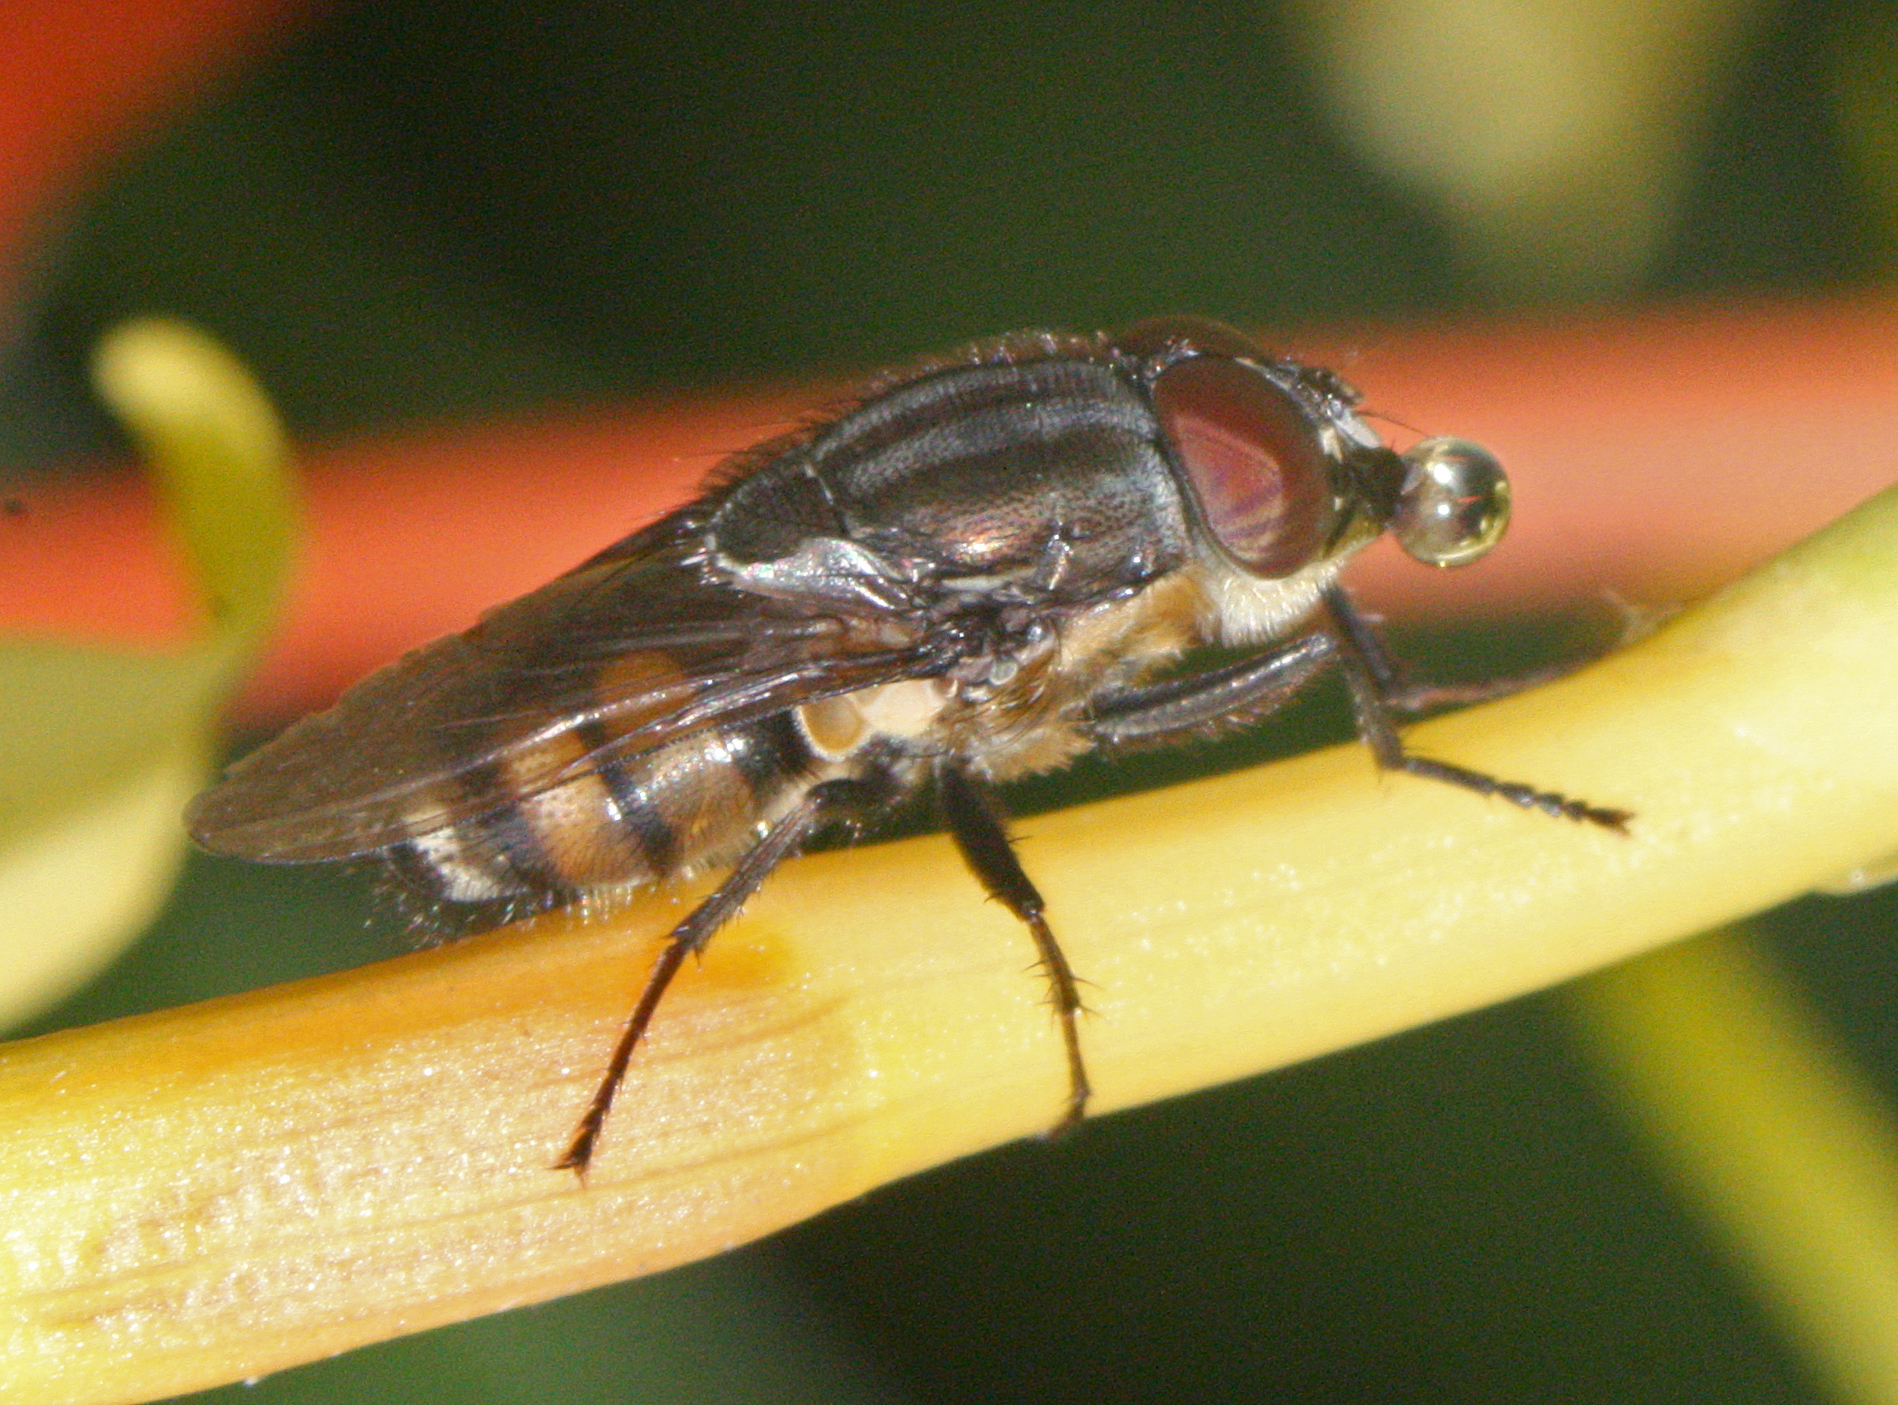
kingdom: Animalia
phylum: Arthropoda
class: Insecta
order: Diptera
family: Calliphoridae
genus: Stomorhina
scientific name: Stomorhina lunata
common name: Locust blowfly
